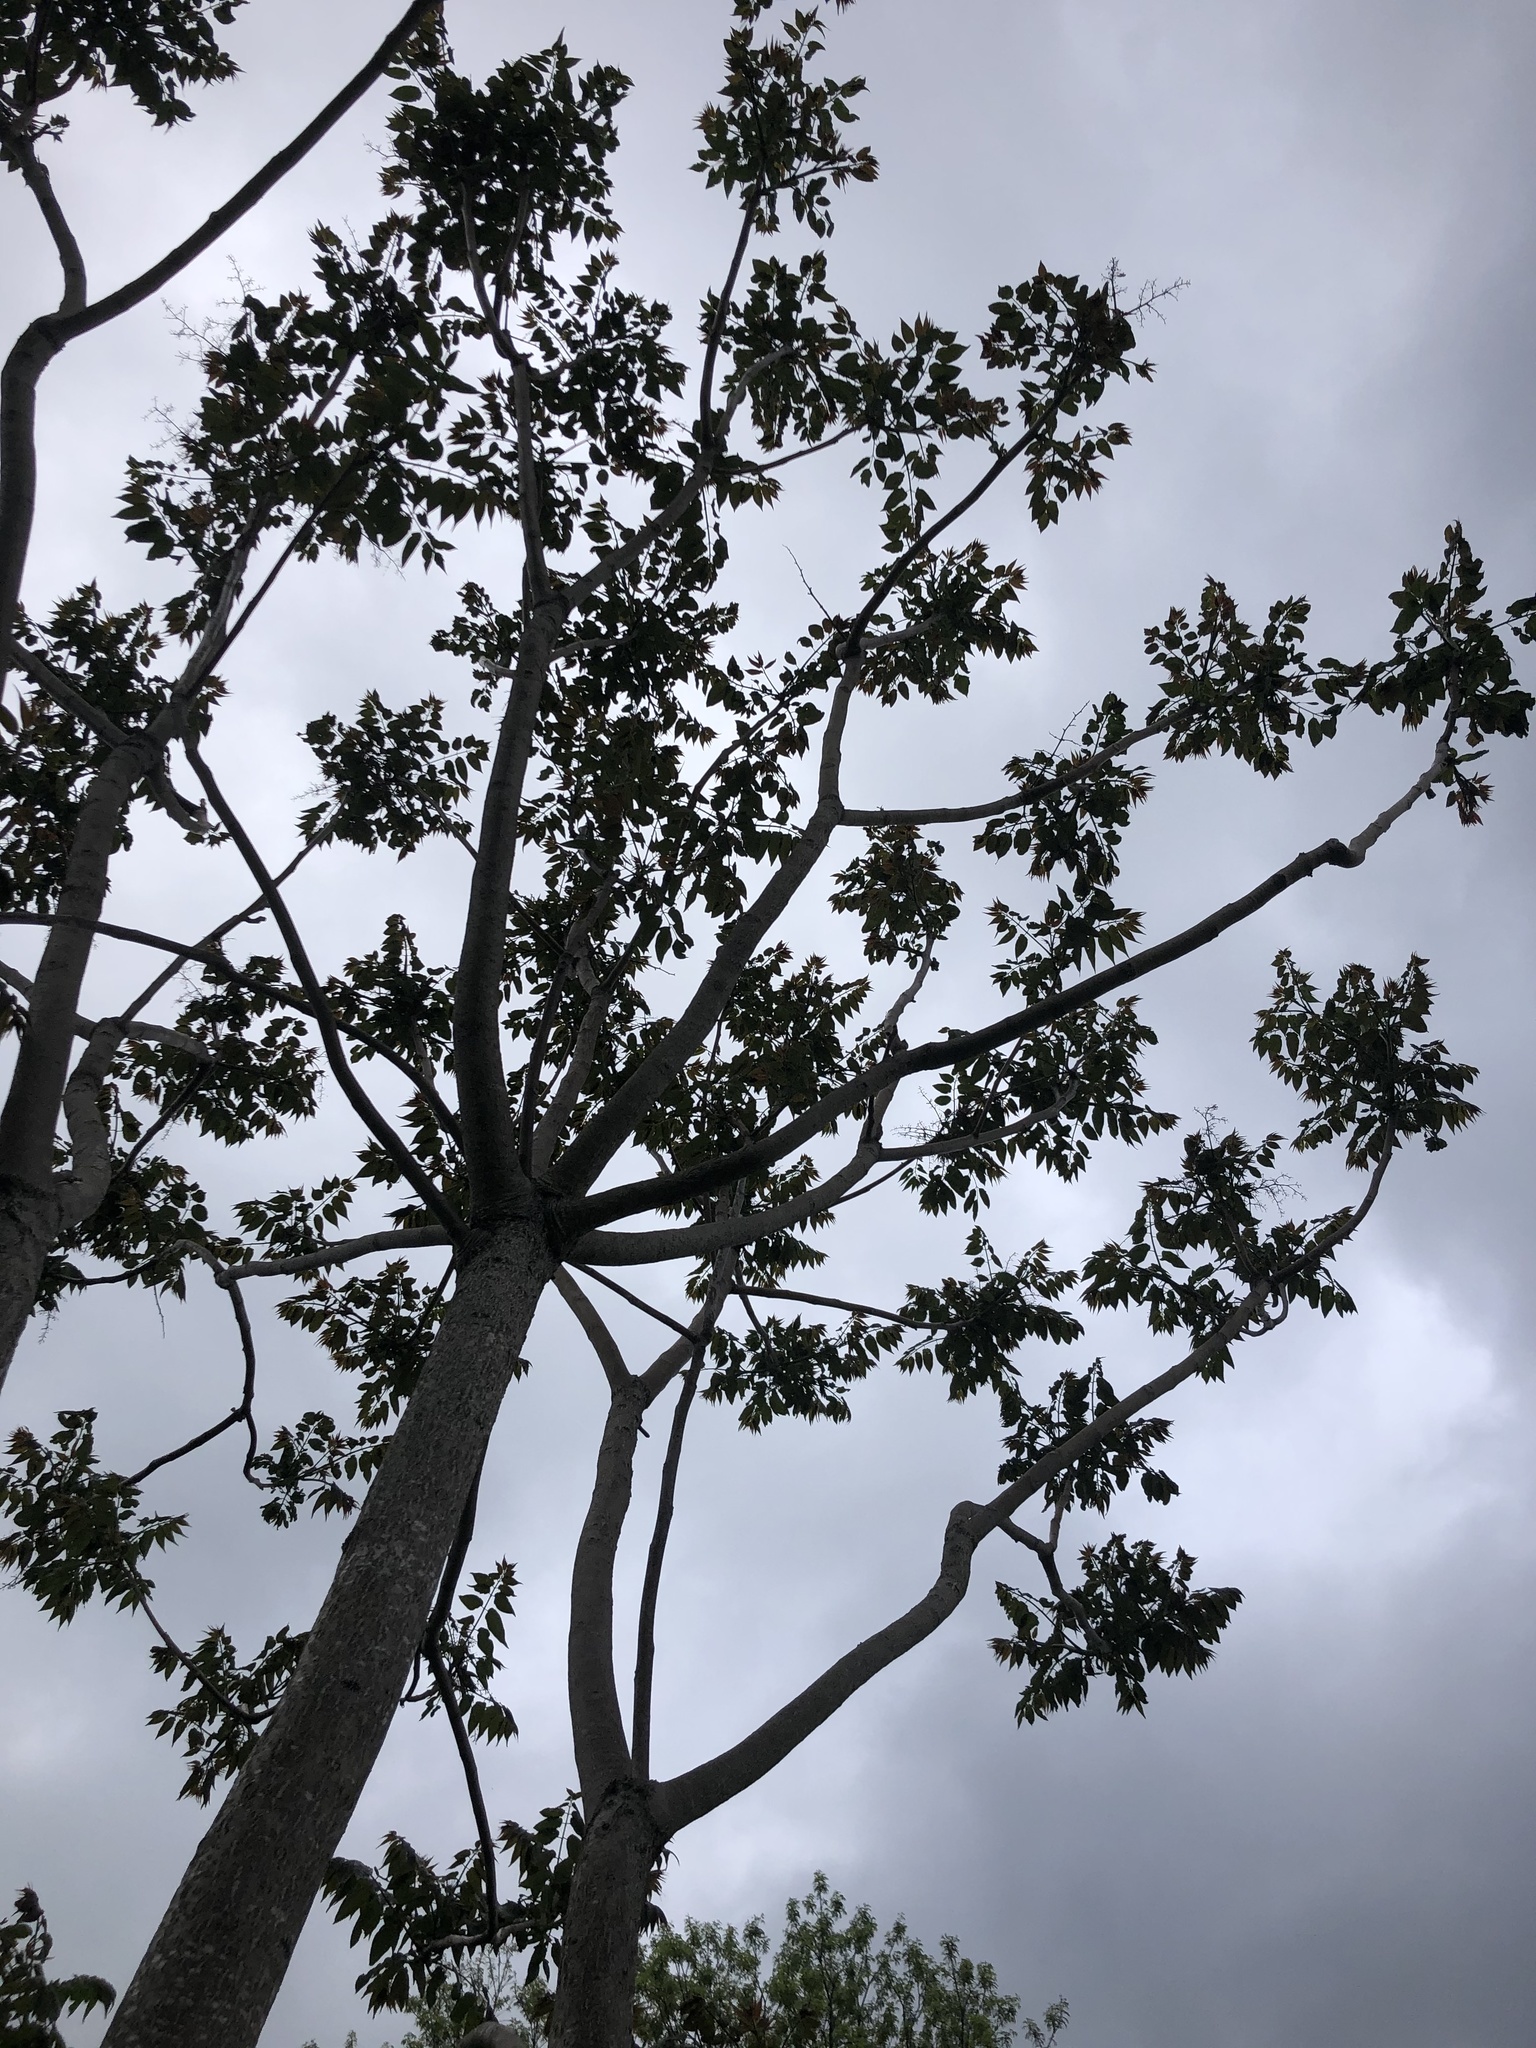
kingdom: Plantae
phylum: Tracheophyta
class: Magnoliopsida
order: Sapindales
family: Simaroubaceae
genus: Ailanthus
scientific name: Ailanthus altissima
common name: Tree-of-heaven
